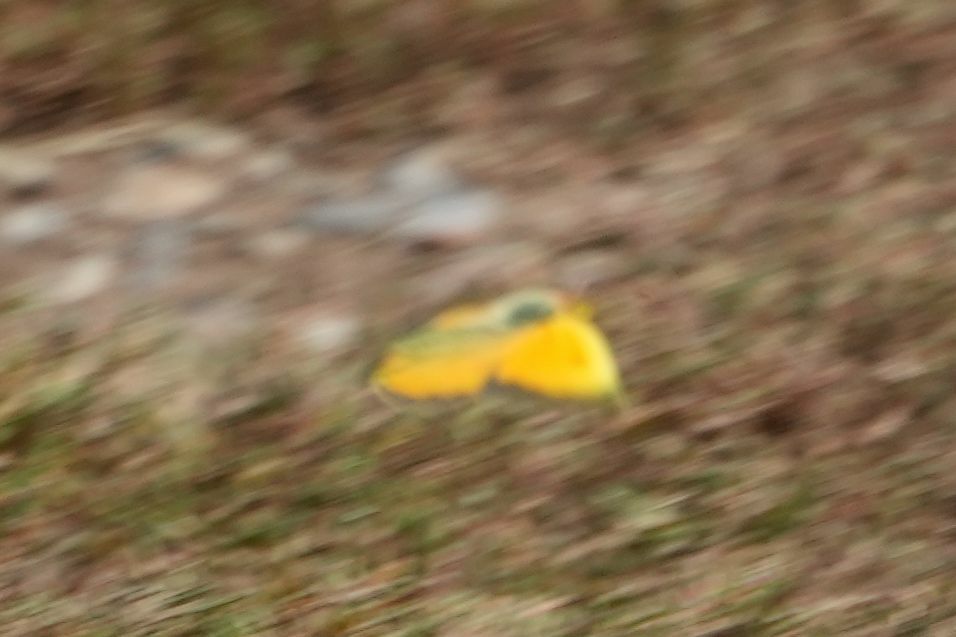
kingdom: Animalia
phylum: Arthropoda
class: Insecta
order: Lepidoptera
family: Pieridae
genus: Colias
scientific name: Colias eurytheme
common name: Alfalfa butterfly
